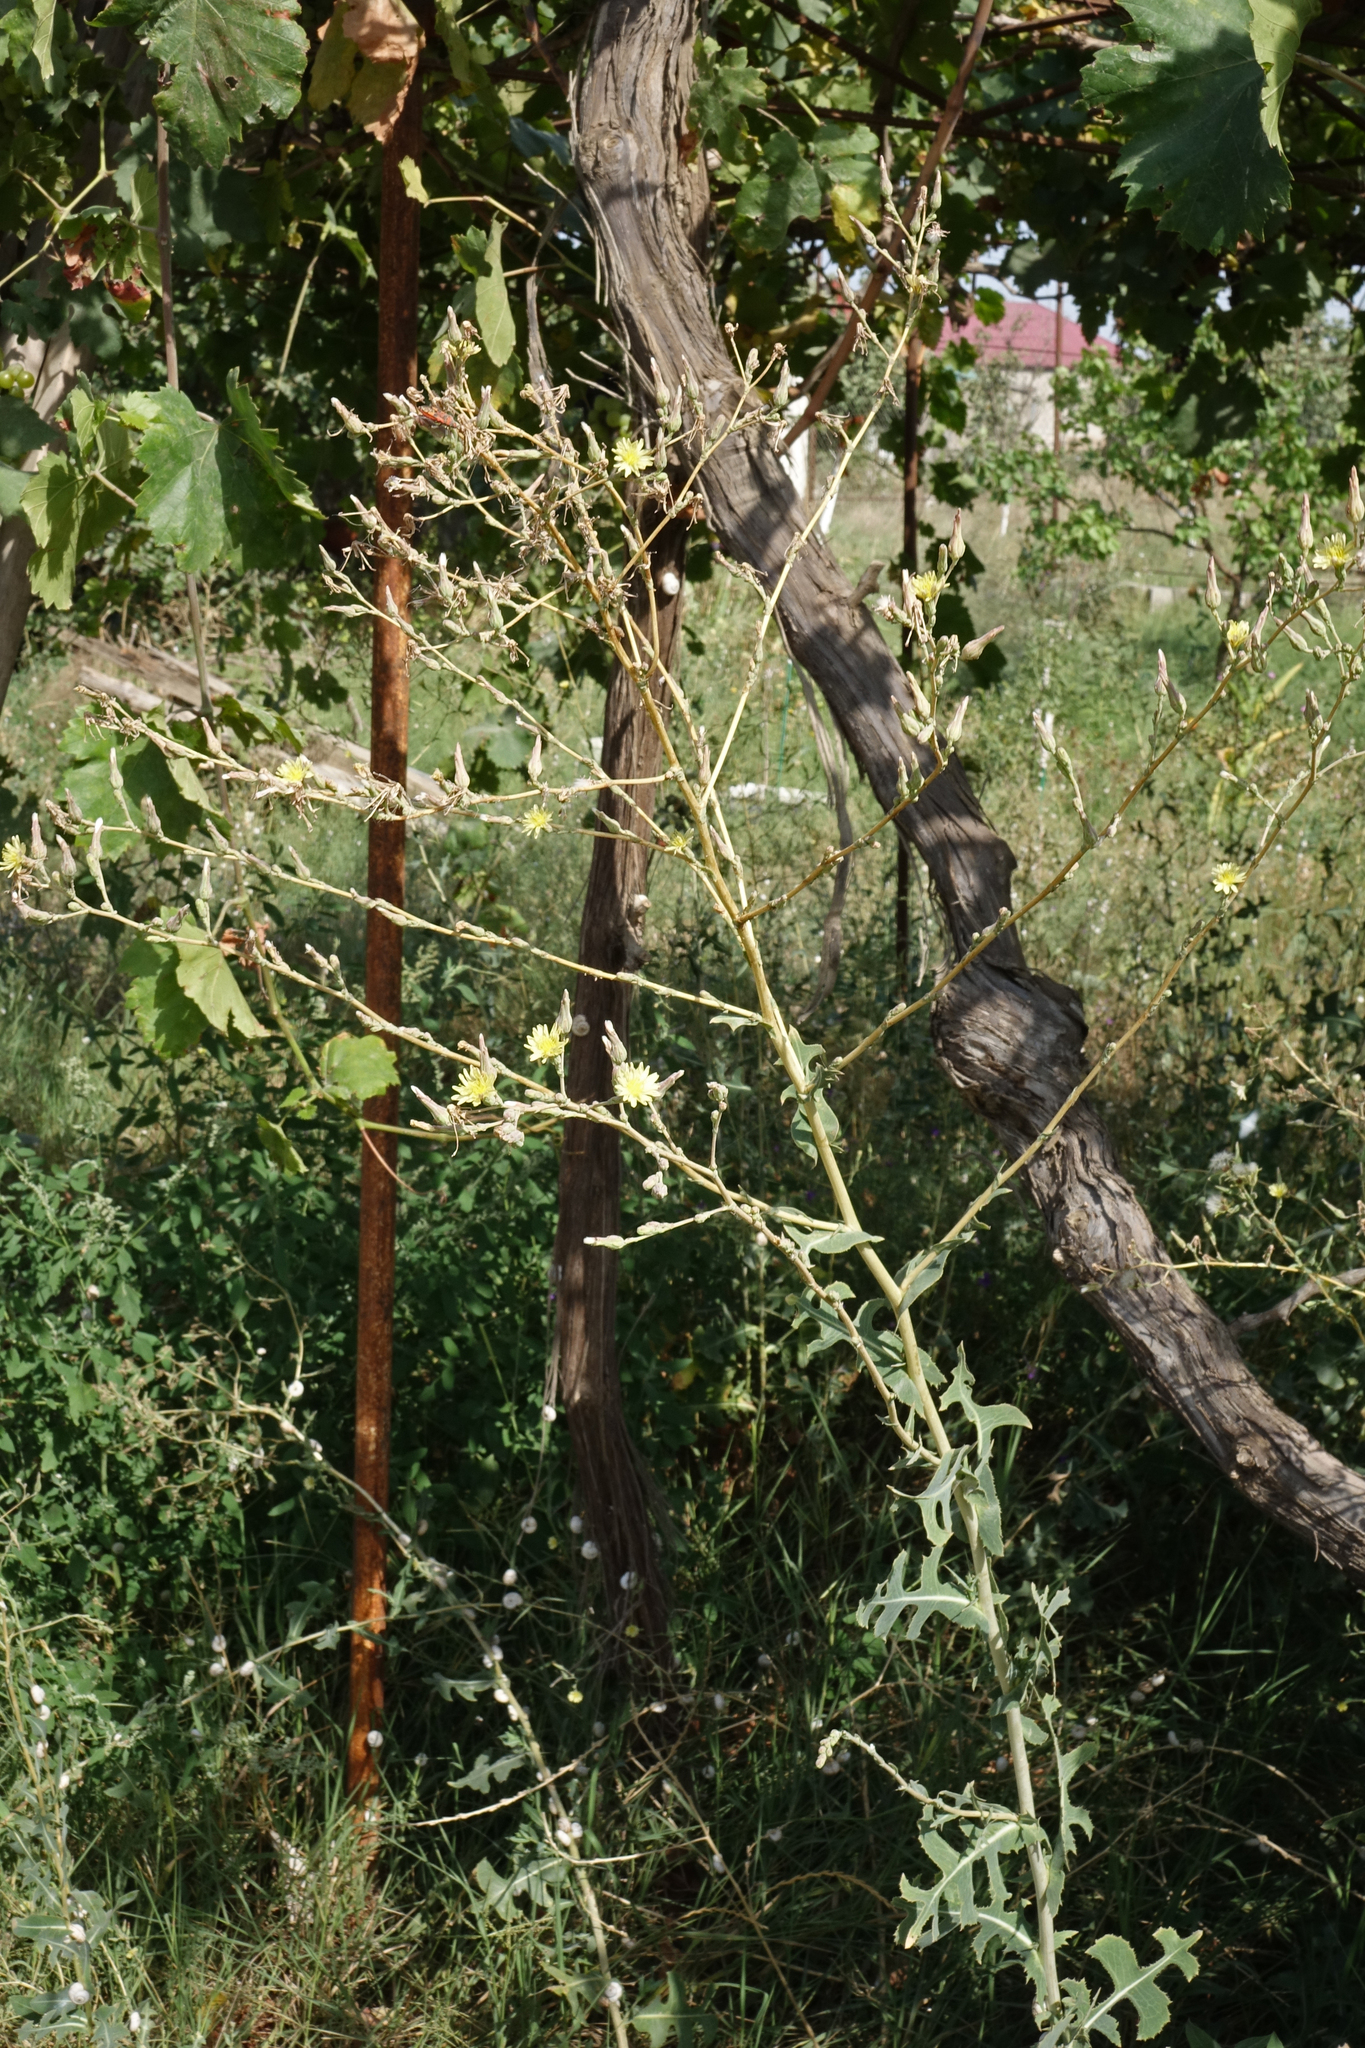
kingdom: Plantae
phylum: Tracheophyta
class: Magnoliopsida
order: Asterales
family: Asteraceae
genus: Lactuca
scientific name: Lactuca serriola
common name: Prickly lettuce
